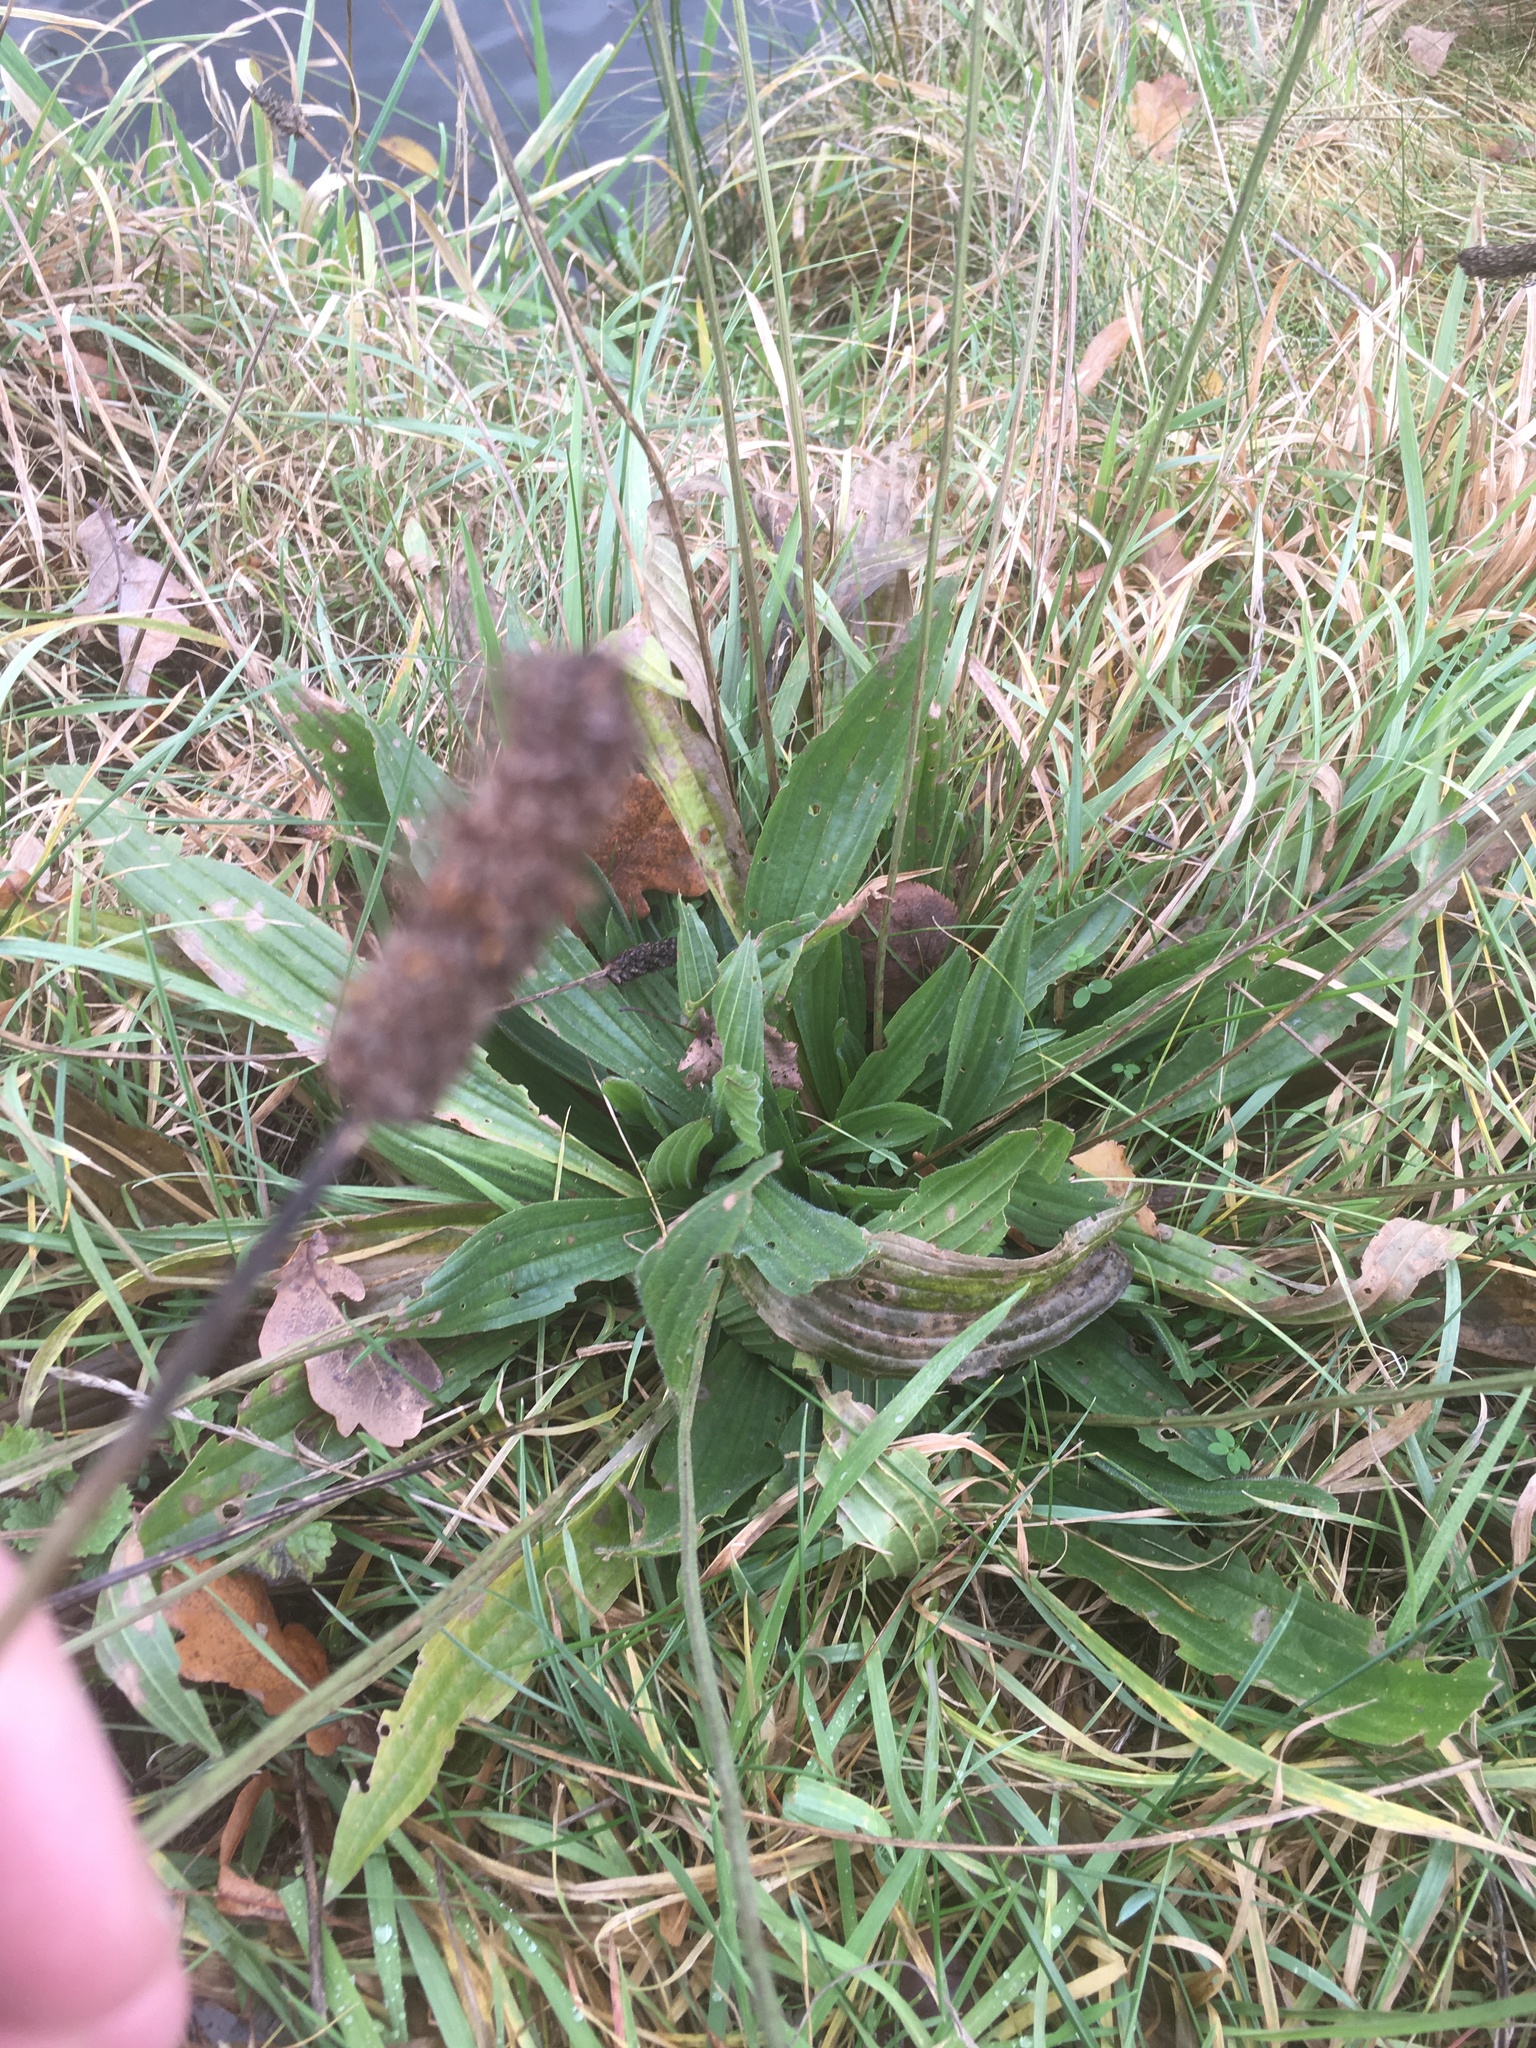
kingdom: Plantae
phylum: Tracheophyta
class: Magnoliopsida
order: Lamiales
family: Plantaginaceae
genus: Plantago
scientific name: Plantago lanceolata
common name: Ribwort plantain
